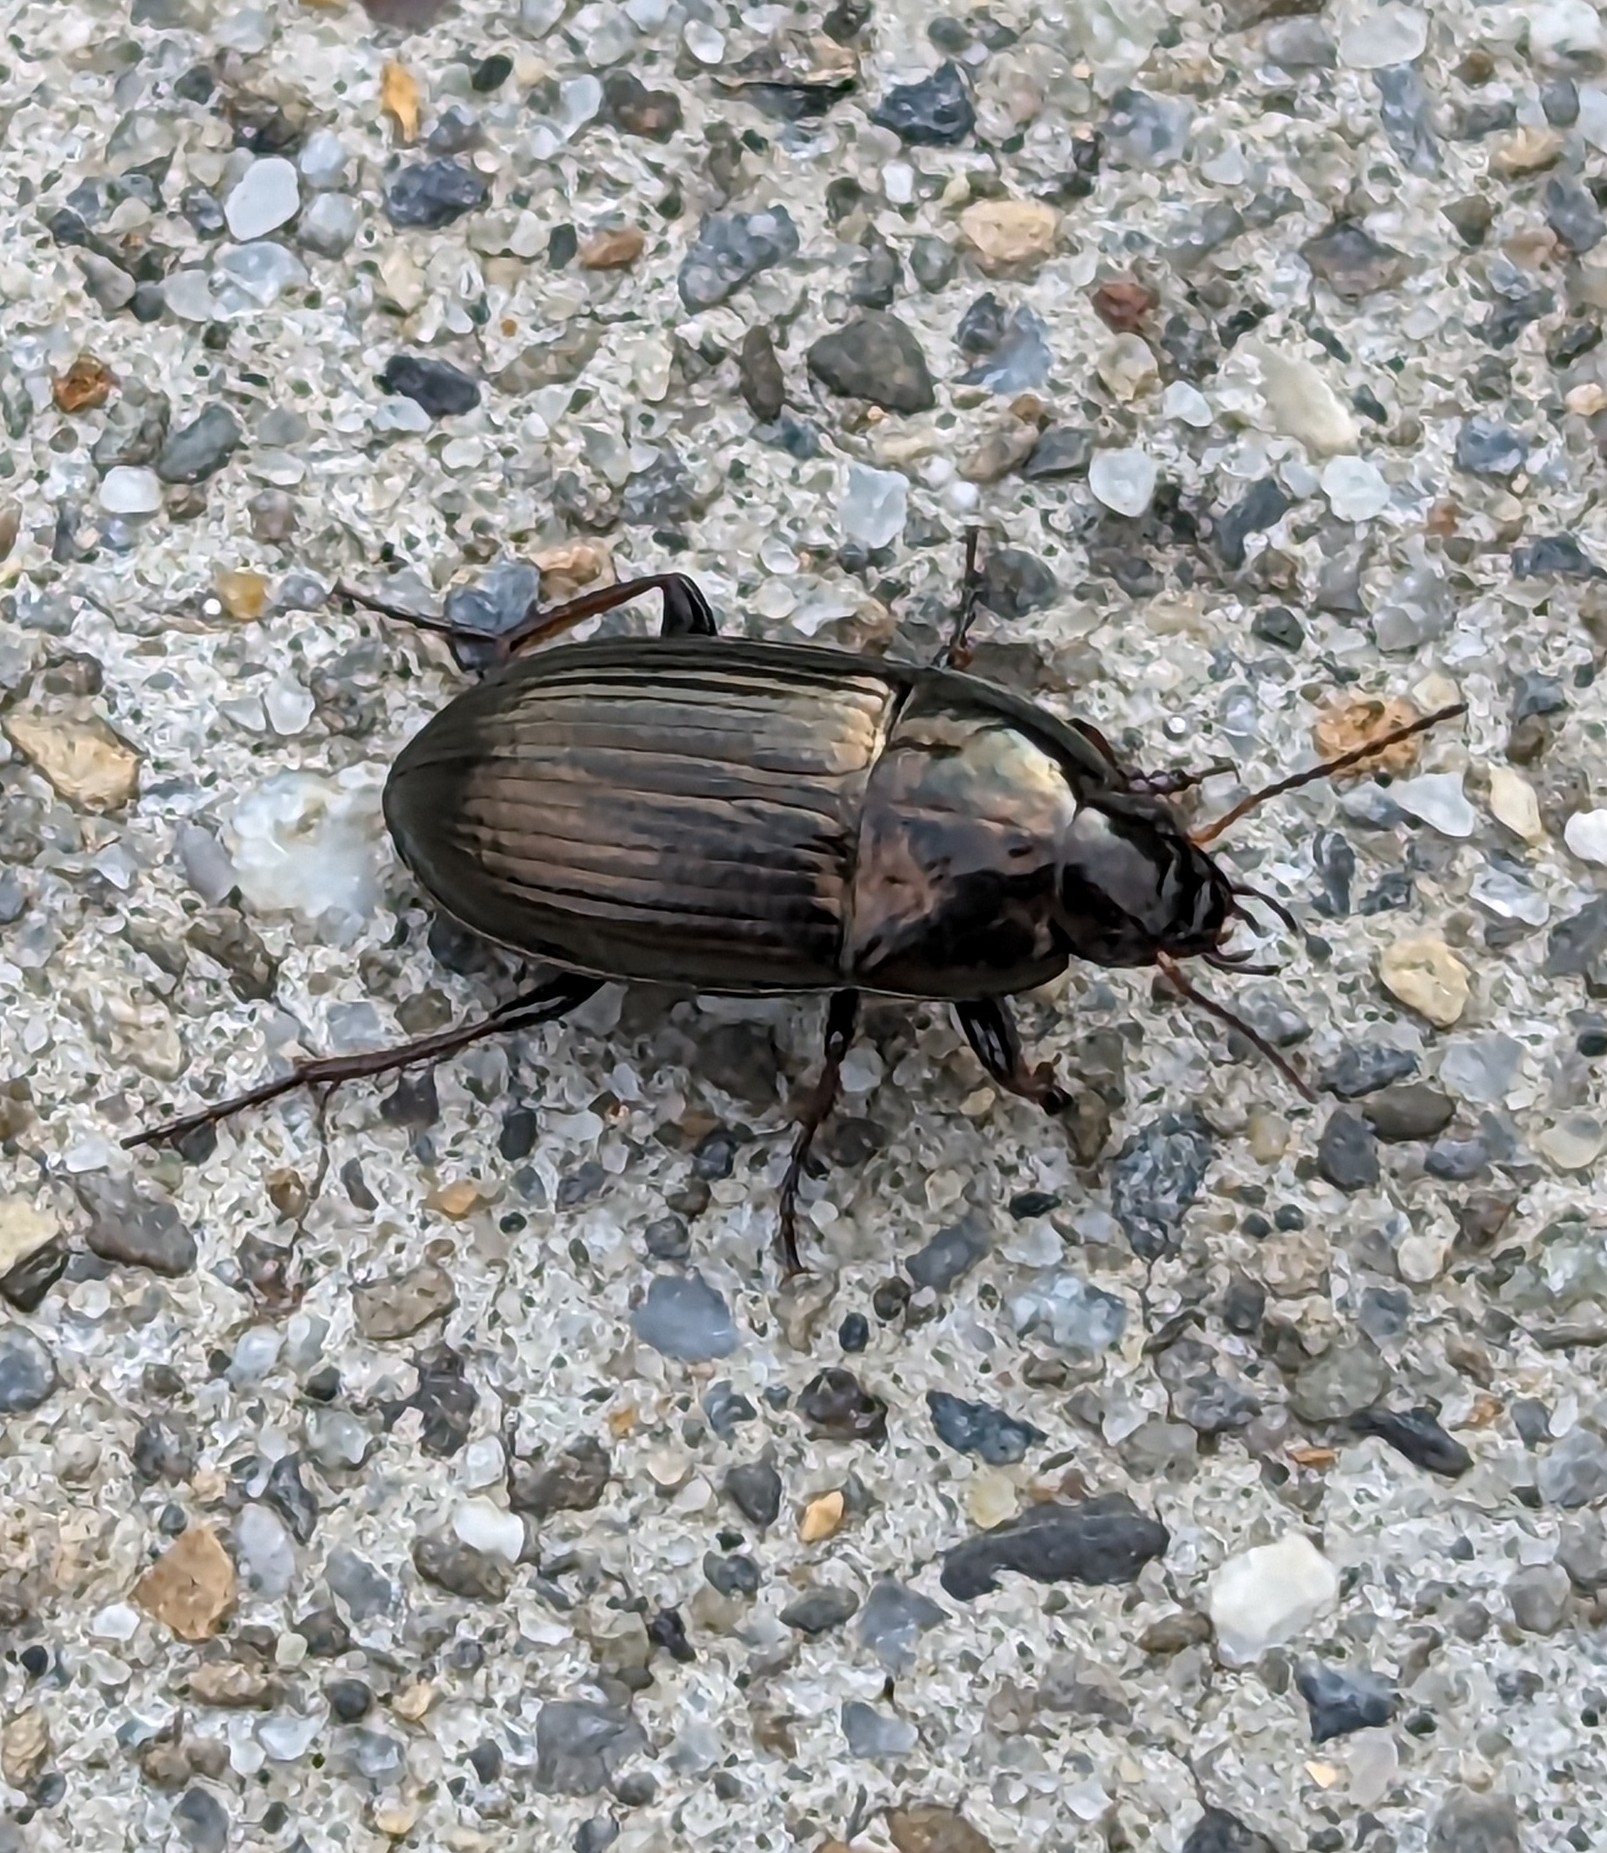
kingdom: Animalia
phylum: Arthropoda
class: Insecta
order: Coleoptera
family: Carabidae
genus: Amara
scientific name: Amara aenea
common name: Common sun beetle
